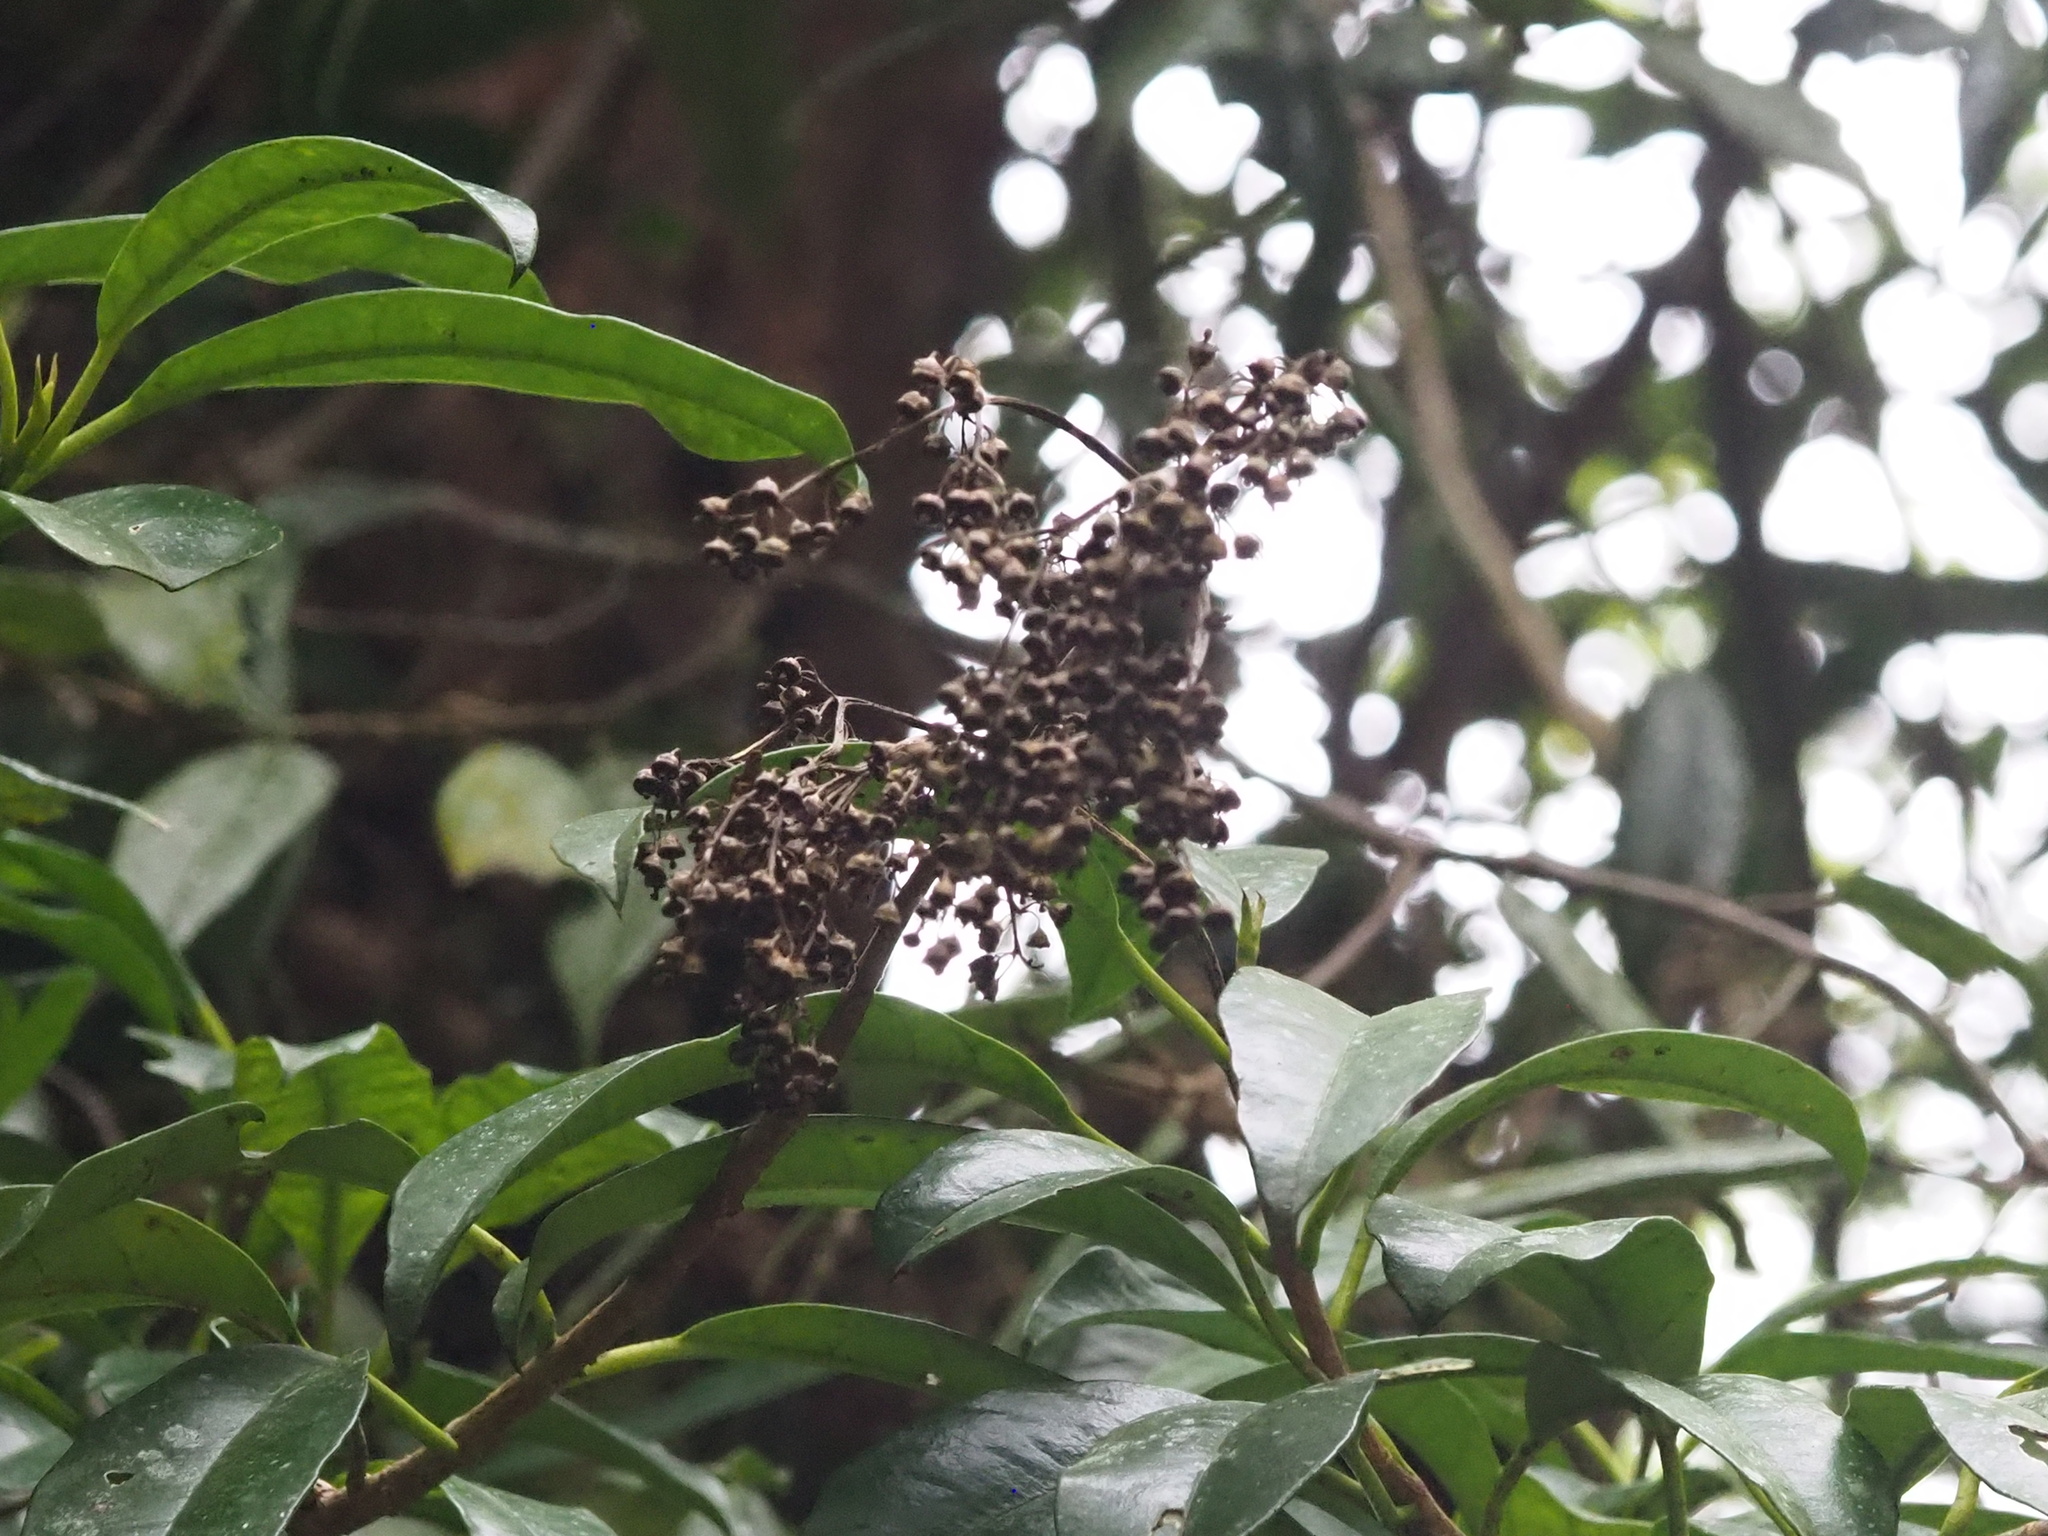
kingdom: Plantae
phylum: Tracheophyta
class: Magnoliopsida
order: Dipsacales
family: Viburnaceae
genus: Viburnum
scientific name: Viburnum odoratissimum
